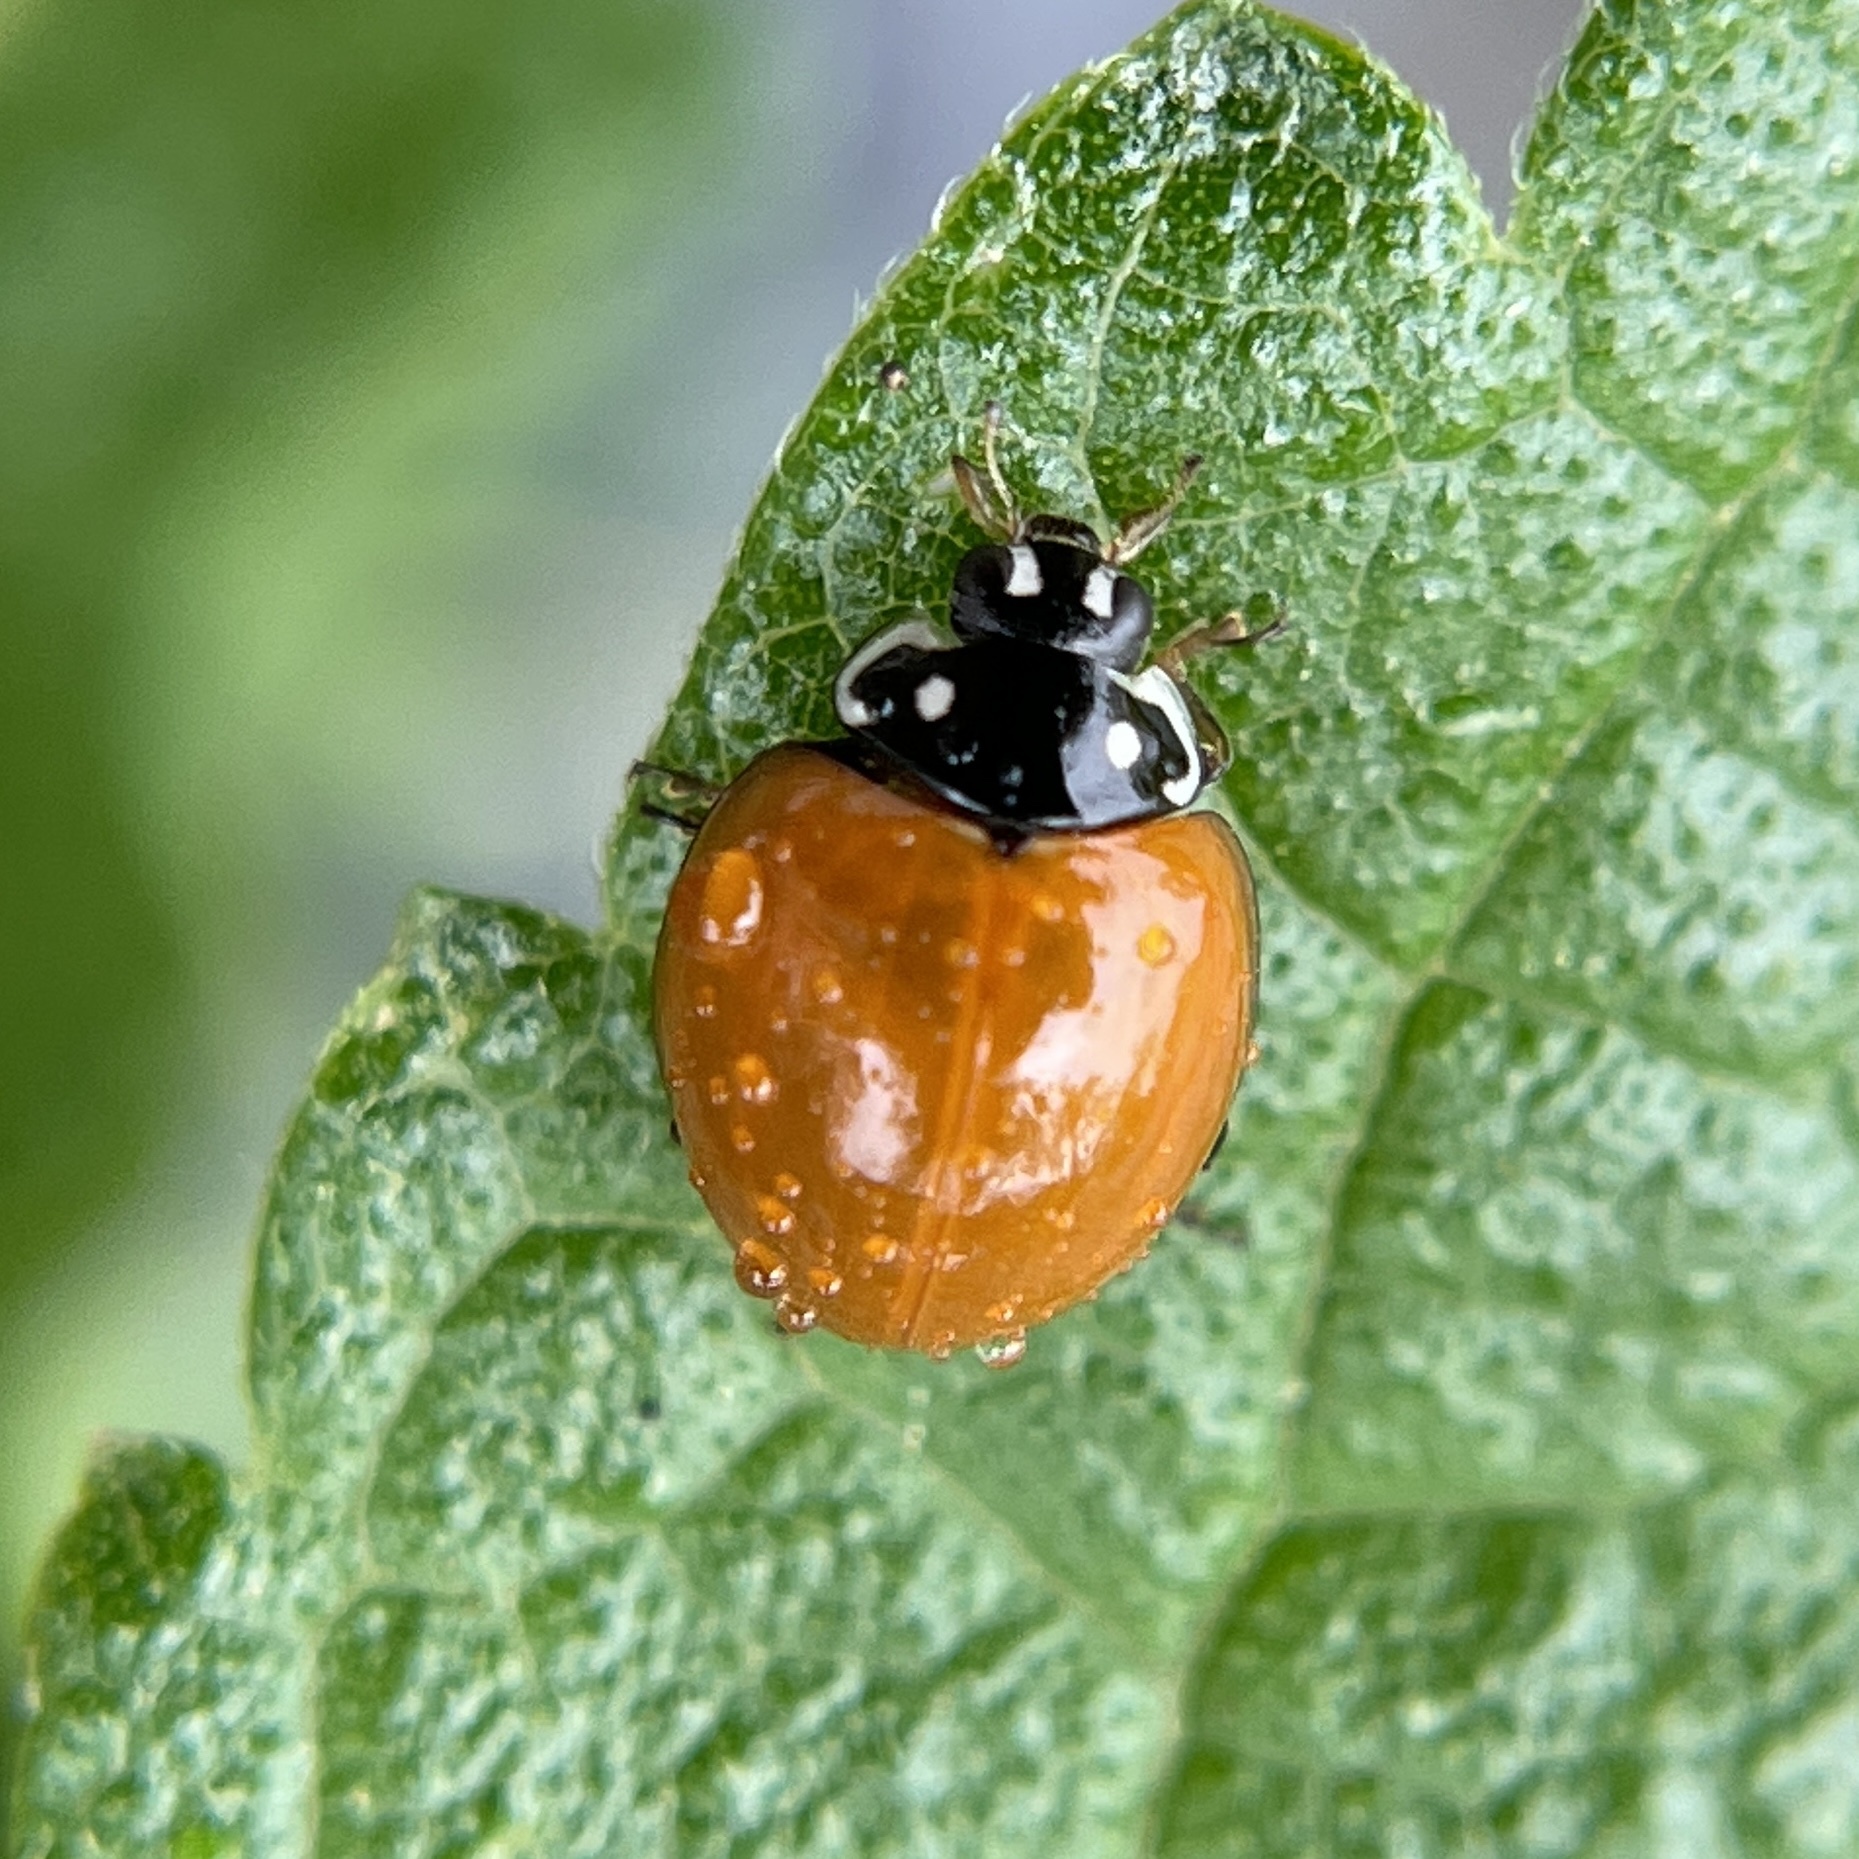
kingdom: Animalia
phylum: Arthropoda
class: Insecta
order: Coleoptera
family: Coccinellidae
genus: Cycloneda
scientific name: Cycloneda sanguinea
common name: Ladybird beetle
